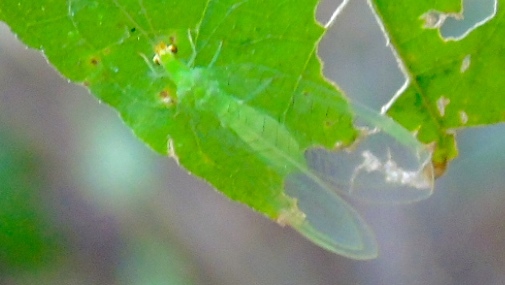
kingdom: Animalia
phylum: Arthropoda
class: Insecta
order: Neuroptera
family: Chrysopidae
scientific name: Chrysopidae
